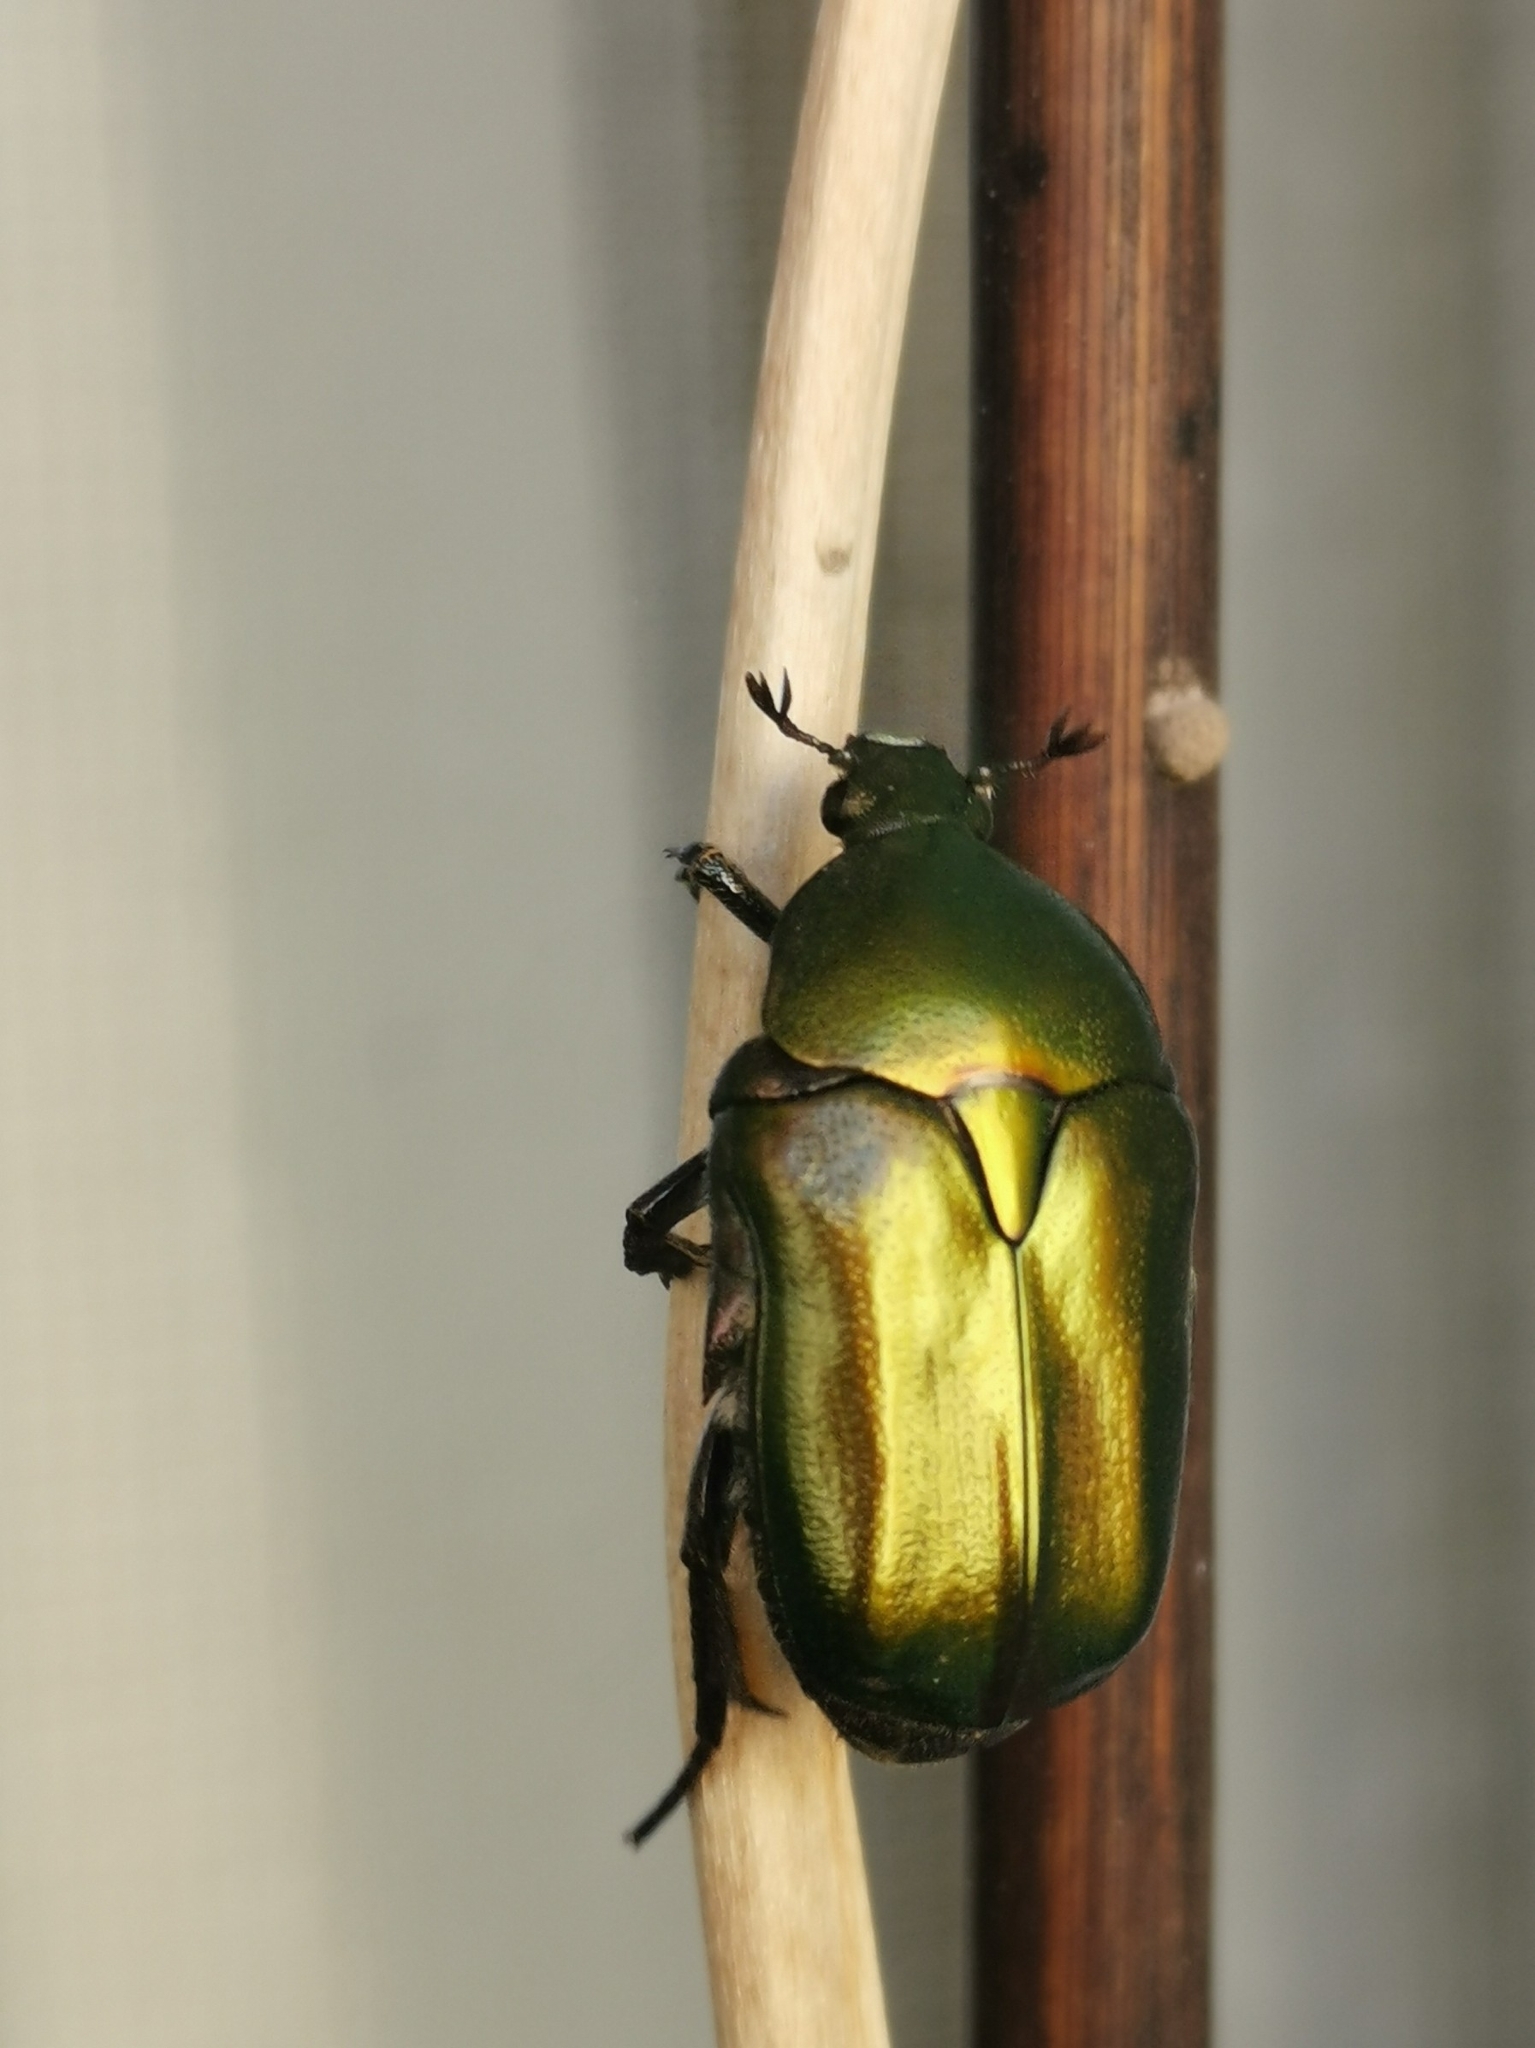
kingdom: Animalia
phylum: Arthropoda
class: Insecta
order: Coleoptera
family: Scarabaeidae
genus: Protaetia
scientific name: Protaetia cuprea
